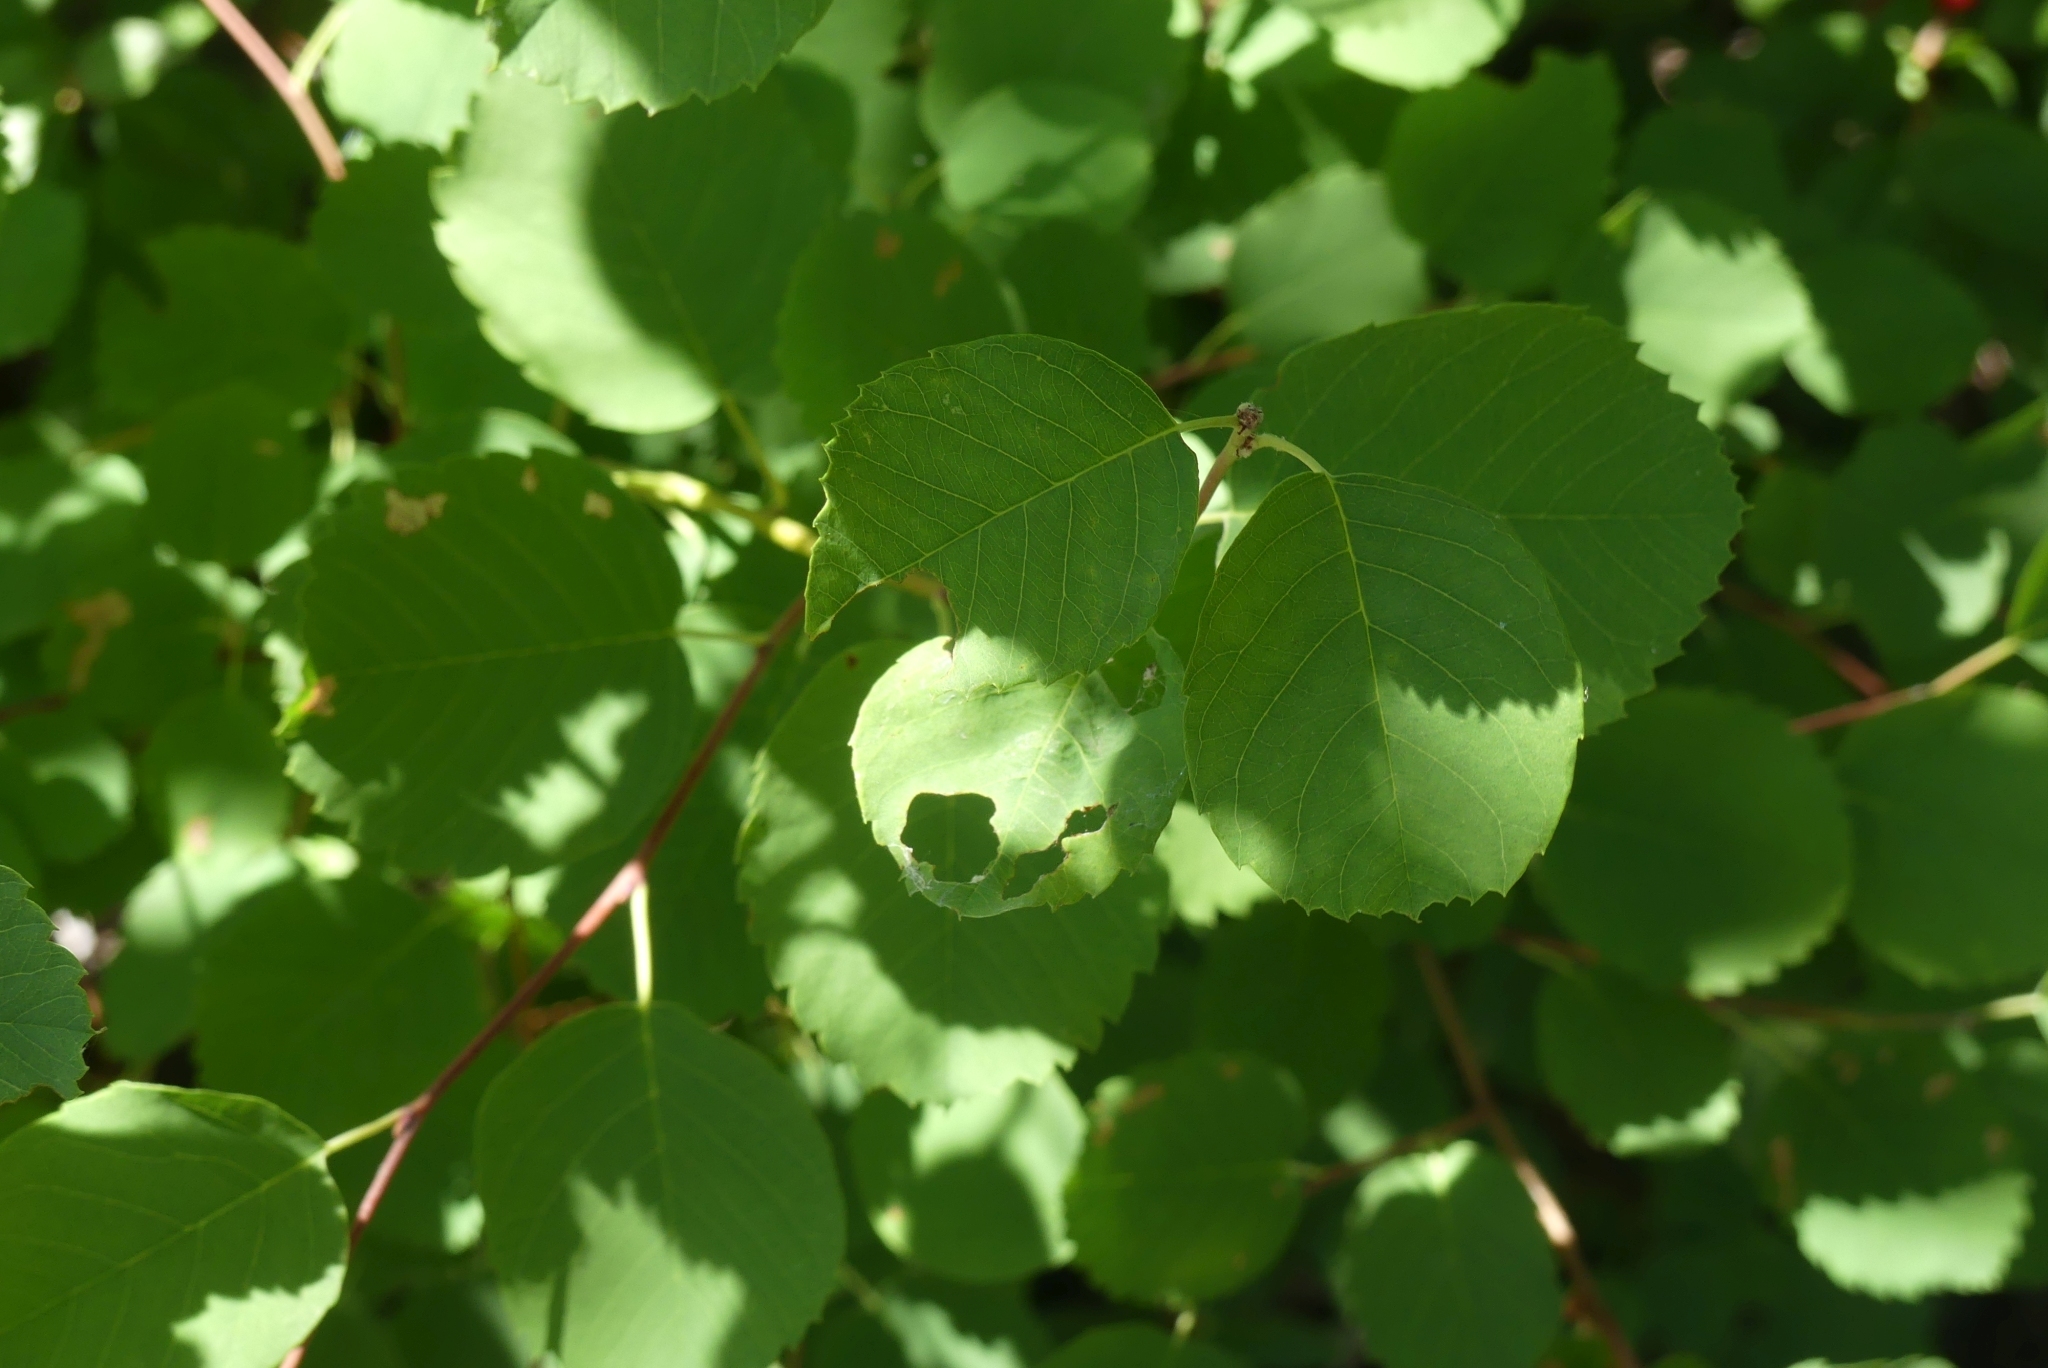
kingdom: Plantae
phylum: Tracheophyta
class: Magnoliopsida
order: Rosales
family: Rosaceae
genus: Amelanchier
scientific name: Amelanchier alnifolia
